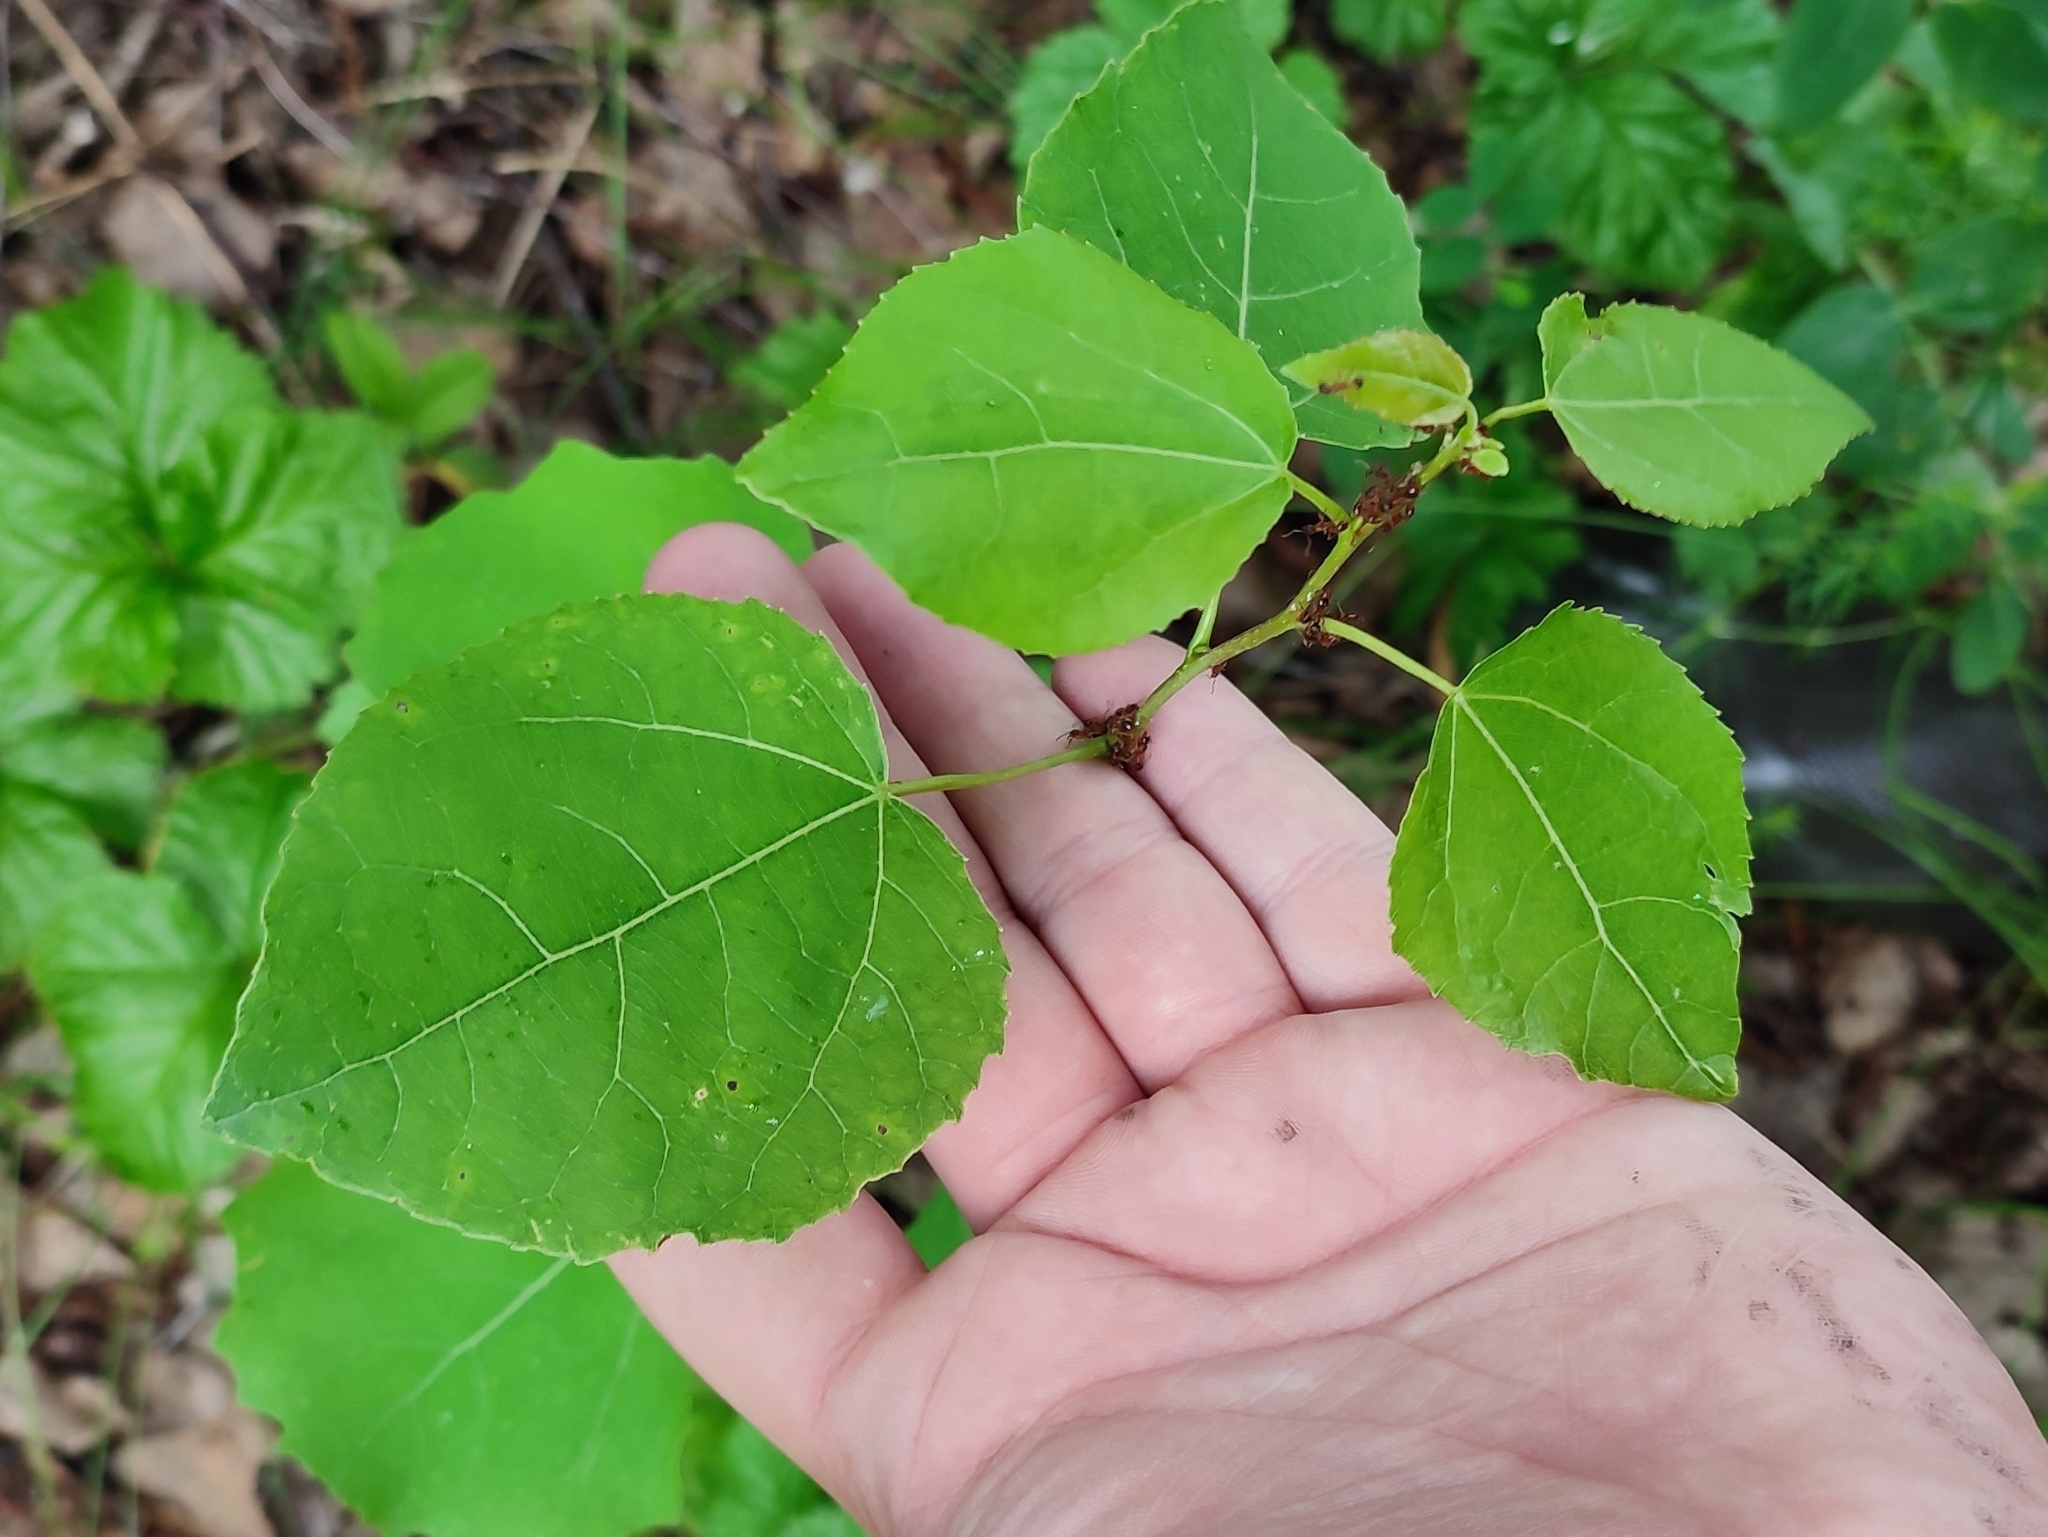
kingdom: Plantae
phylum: Tracheophyta
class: Magnoliopsida
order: Malpighiales
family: Salicaceae
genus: Populus
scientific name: Populus tremula
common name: European aspen
